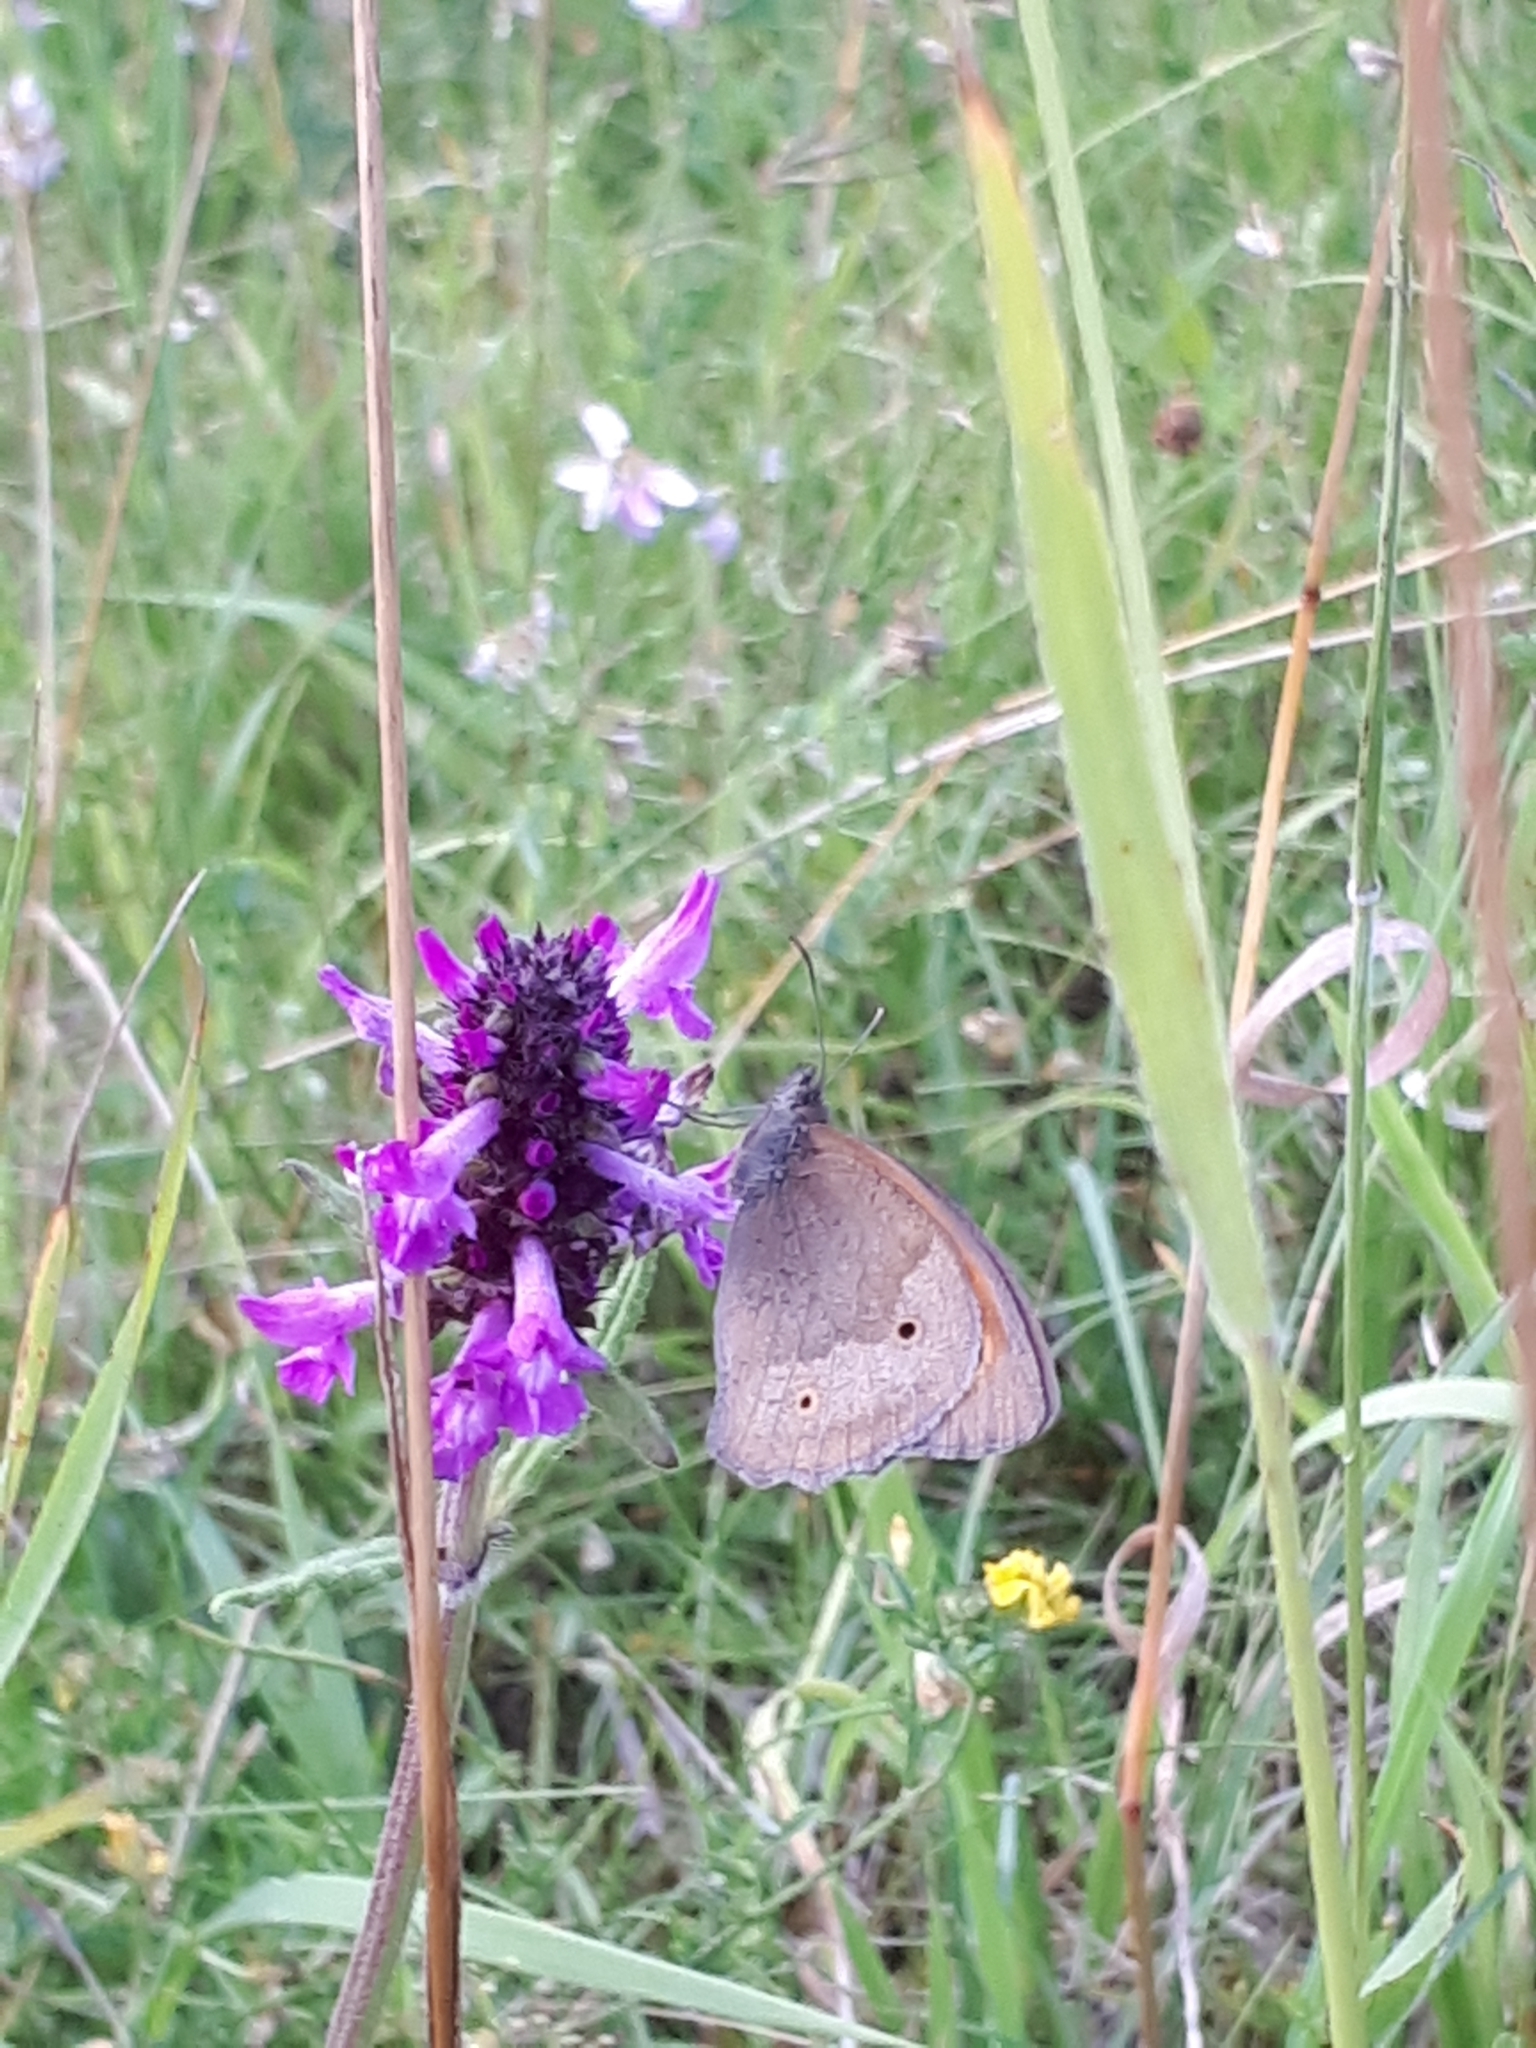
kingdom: Animalia
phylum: Arthropoda
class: Insecta
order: Lepidoptera
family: Nymphalidae
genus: Maniola
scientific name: Maniola jurtina
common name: Meadow brown
